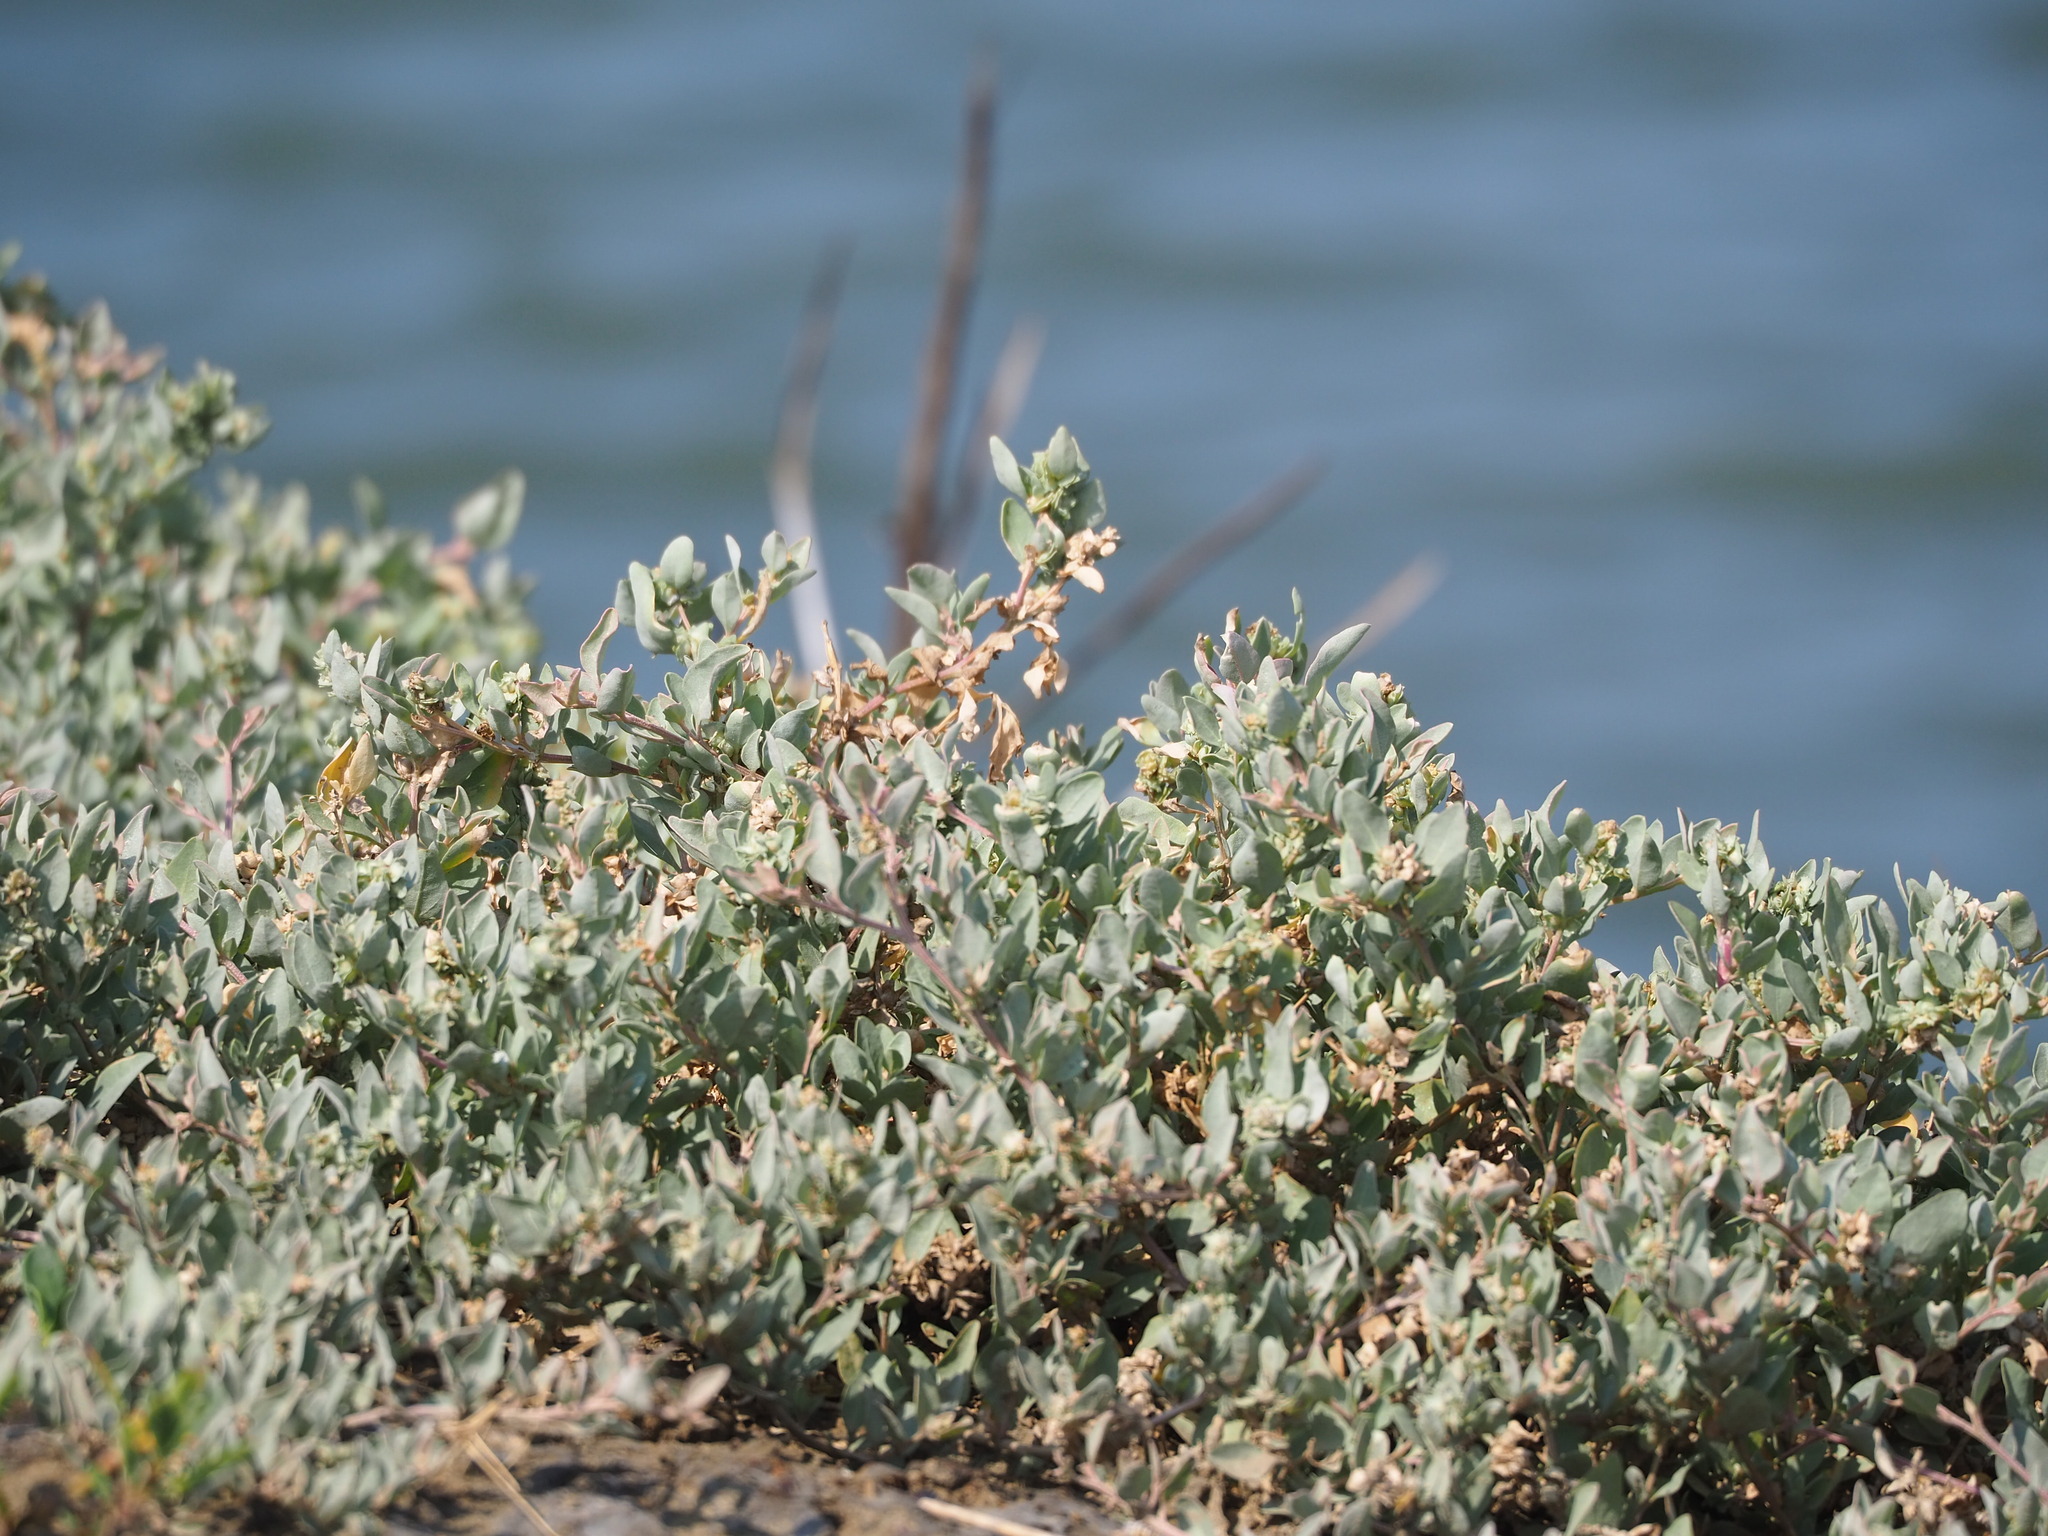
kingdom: Plantae
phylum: Tracheophyta
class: Magnoliopsida
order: Caryophyllales
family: Amaranthaceae
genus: Atriplex
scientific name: Atriplex maximowicziana
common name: Maximowicz's saltbush
